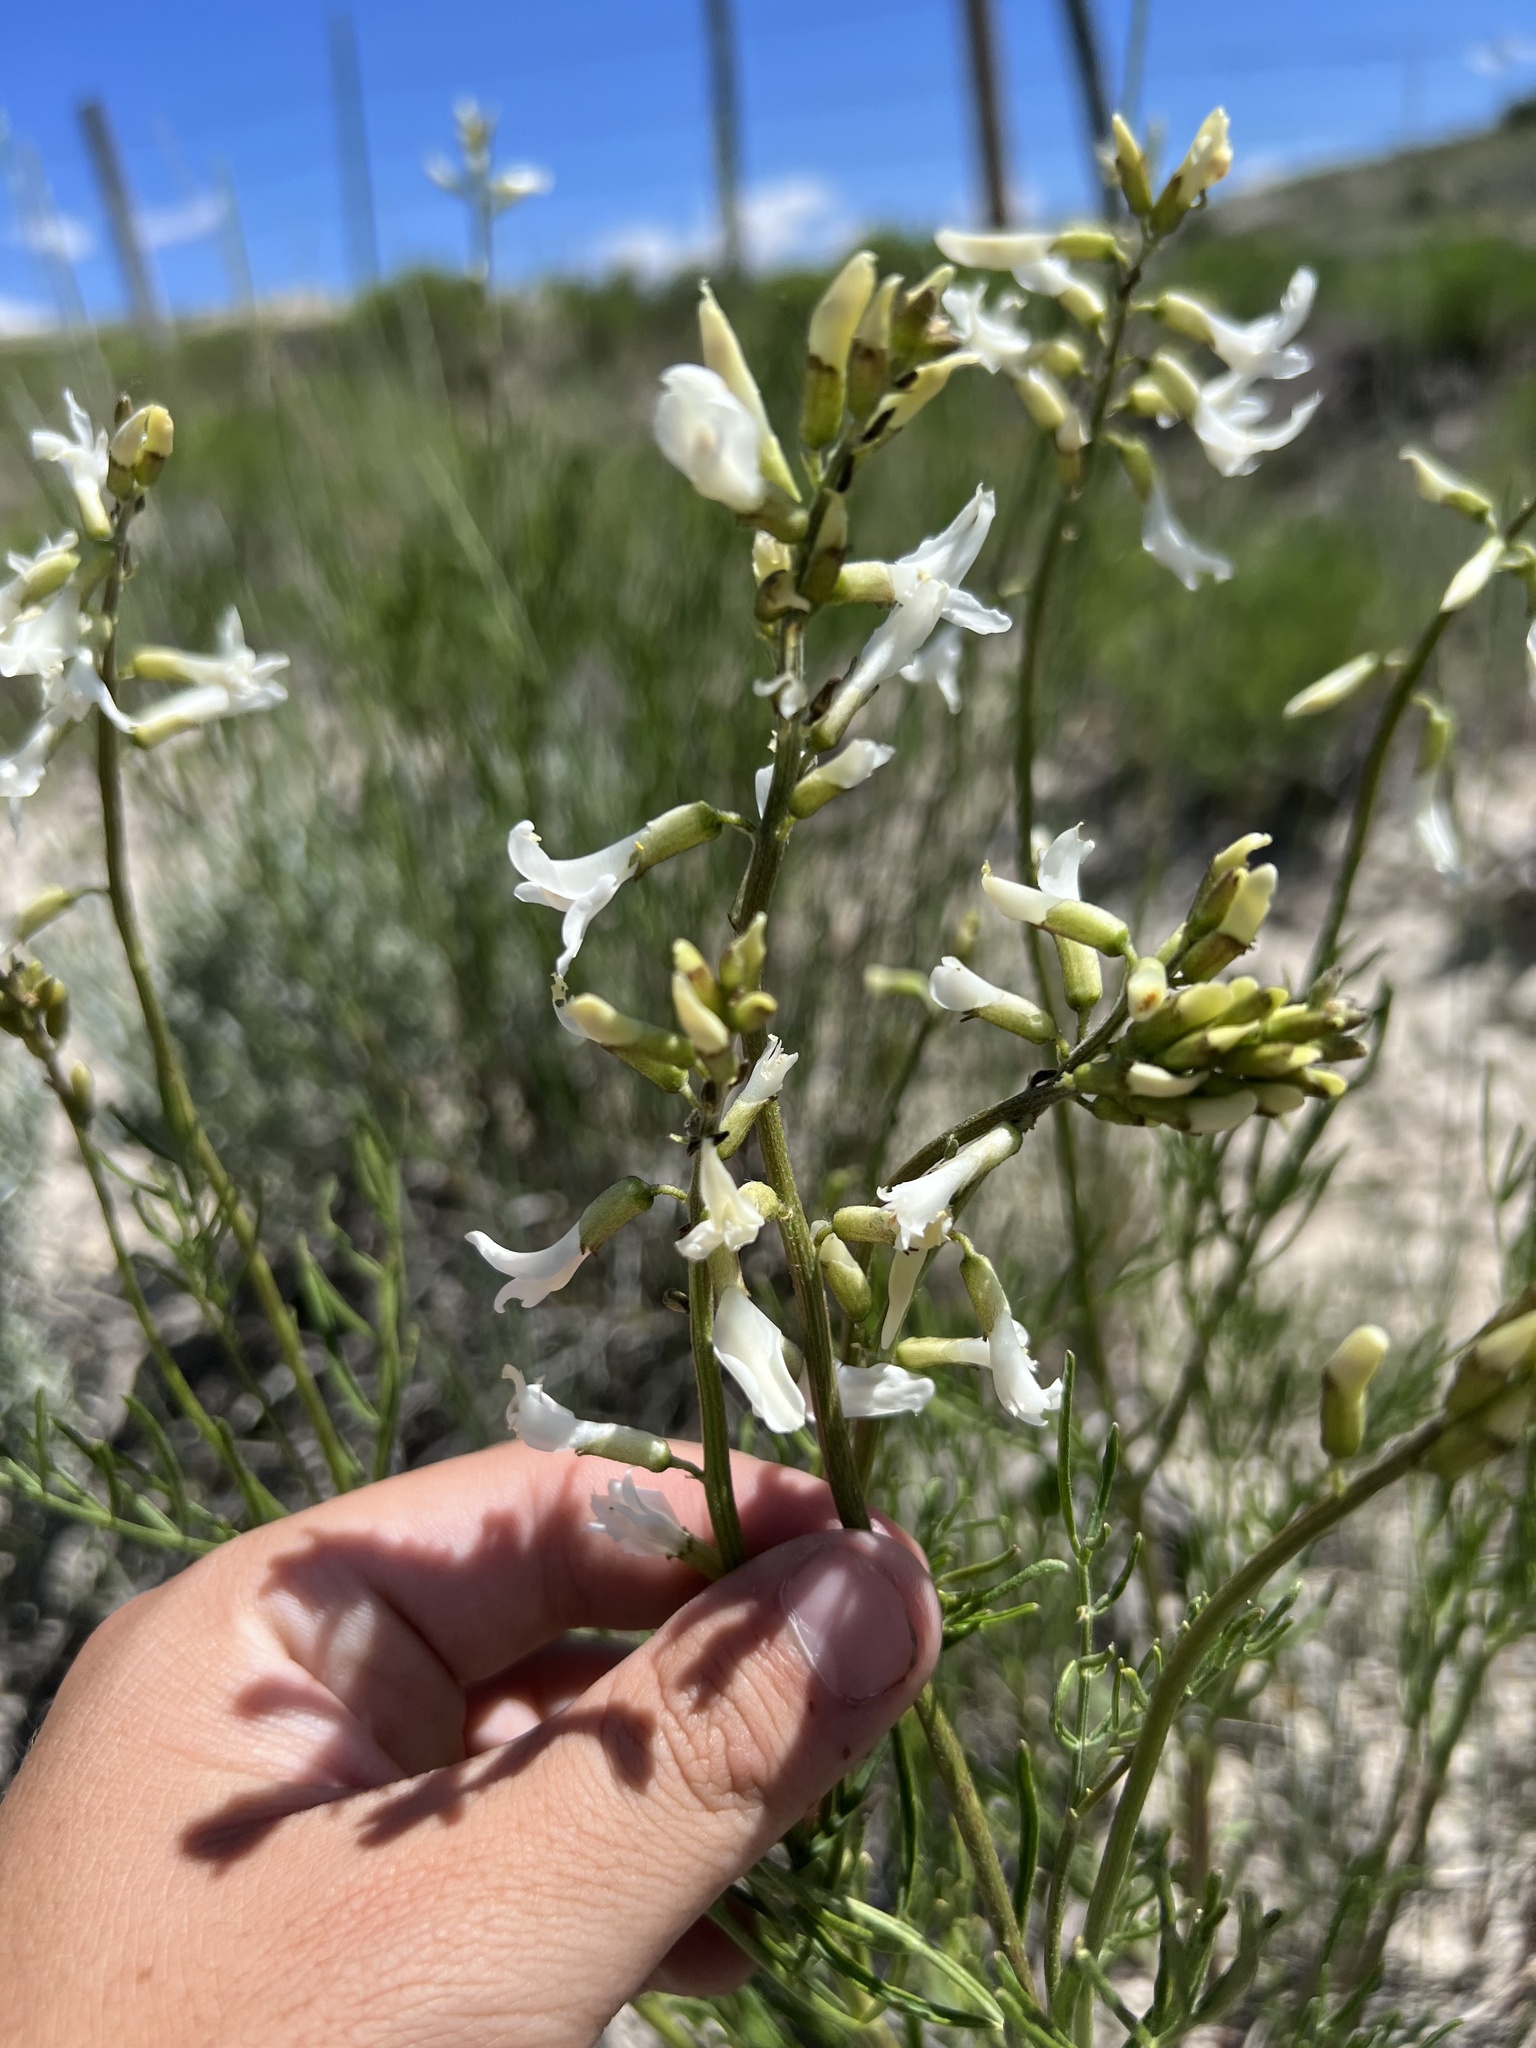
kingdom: Plantae
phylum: Tracheophyta
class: Magnoliopsida
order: Fabales
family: Fabaceae
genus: Astragalus
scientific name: Astragalus osterhoutii
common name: Osterhout's milk-vetch
